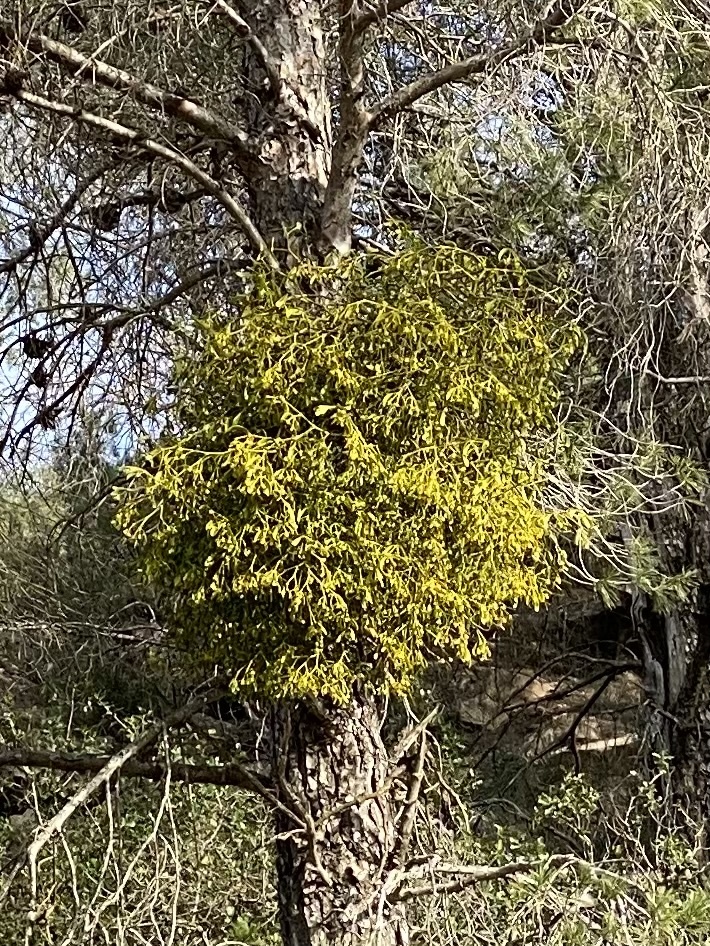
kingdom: Plantae
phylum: Tracheophyta
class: Magnoliopsida
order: Santalales
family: Viscaceae
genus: Viscum
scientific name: Viscum album
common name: Mistletoe
